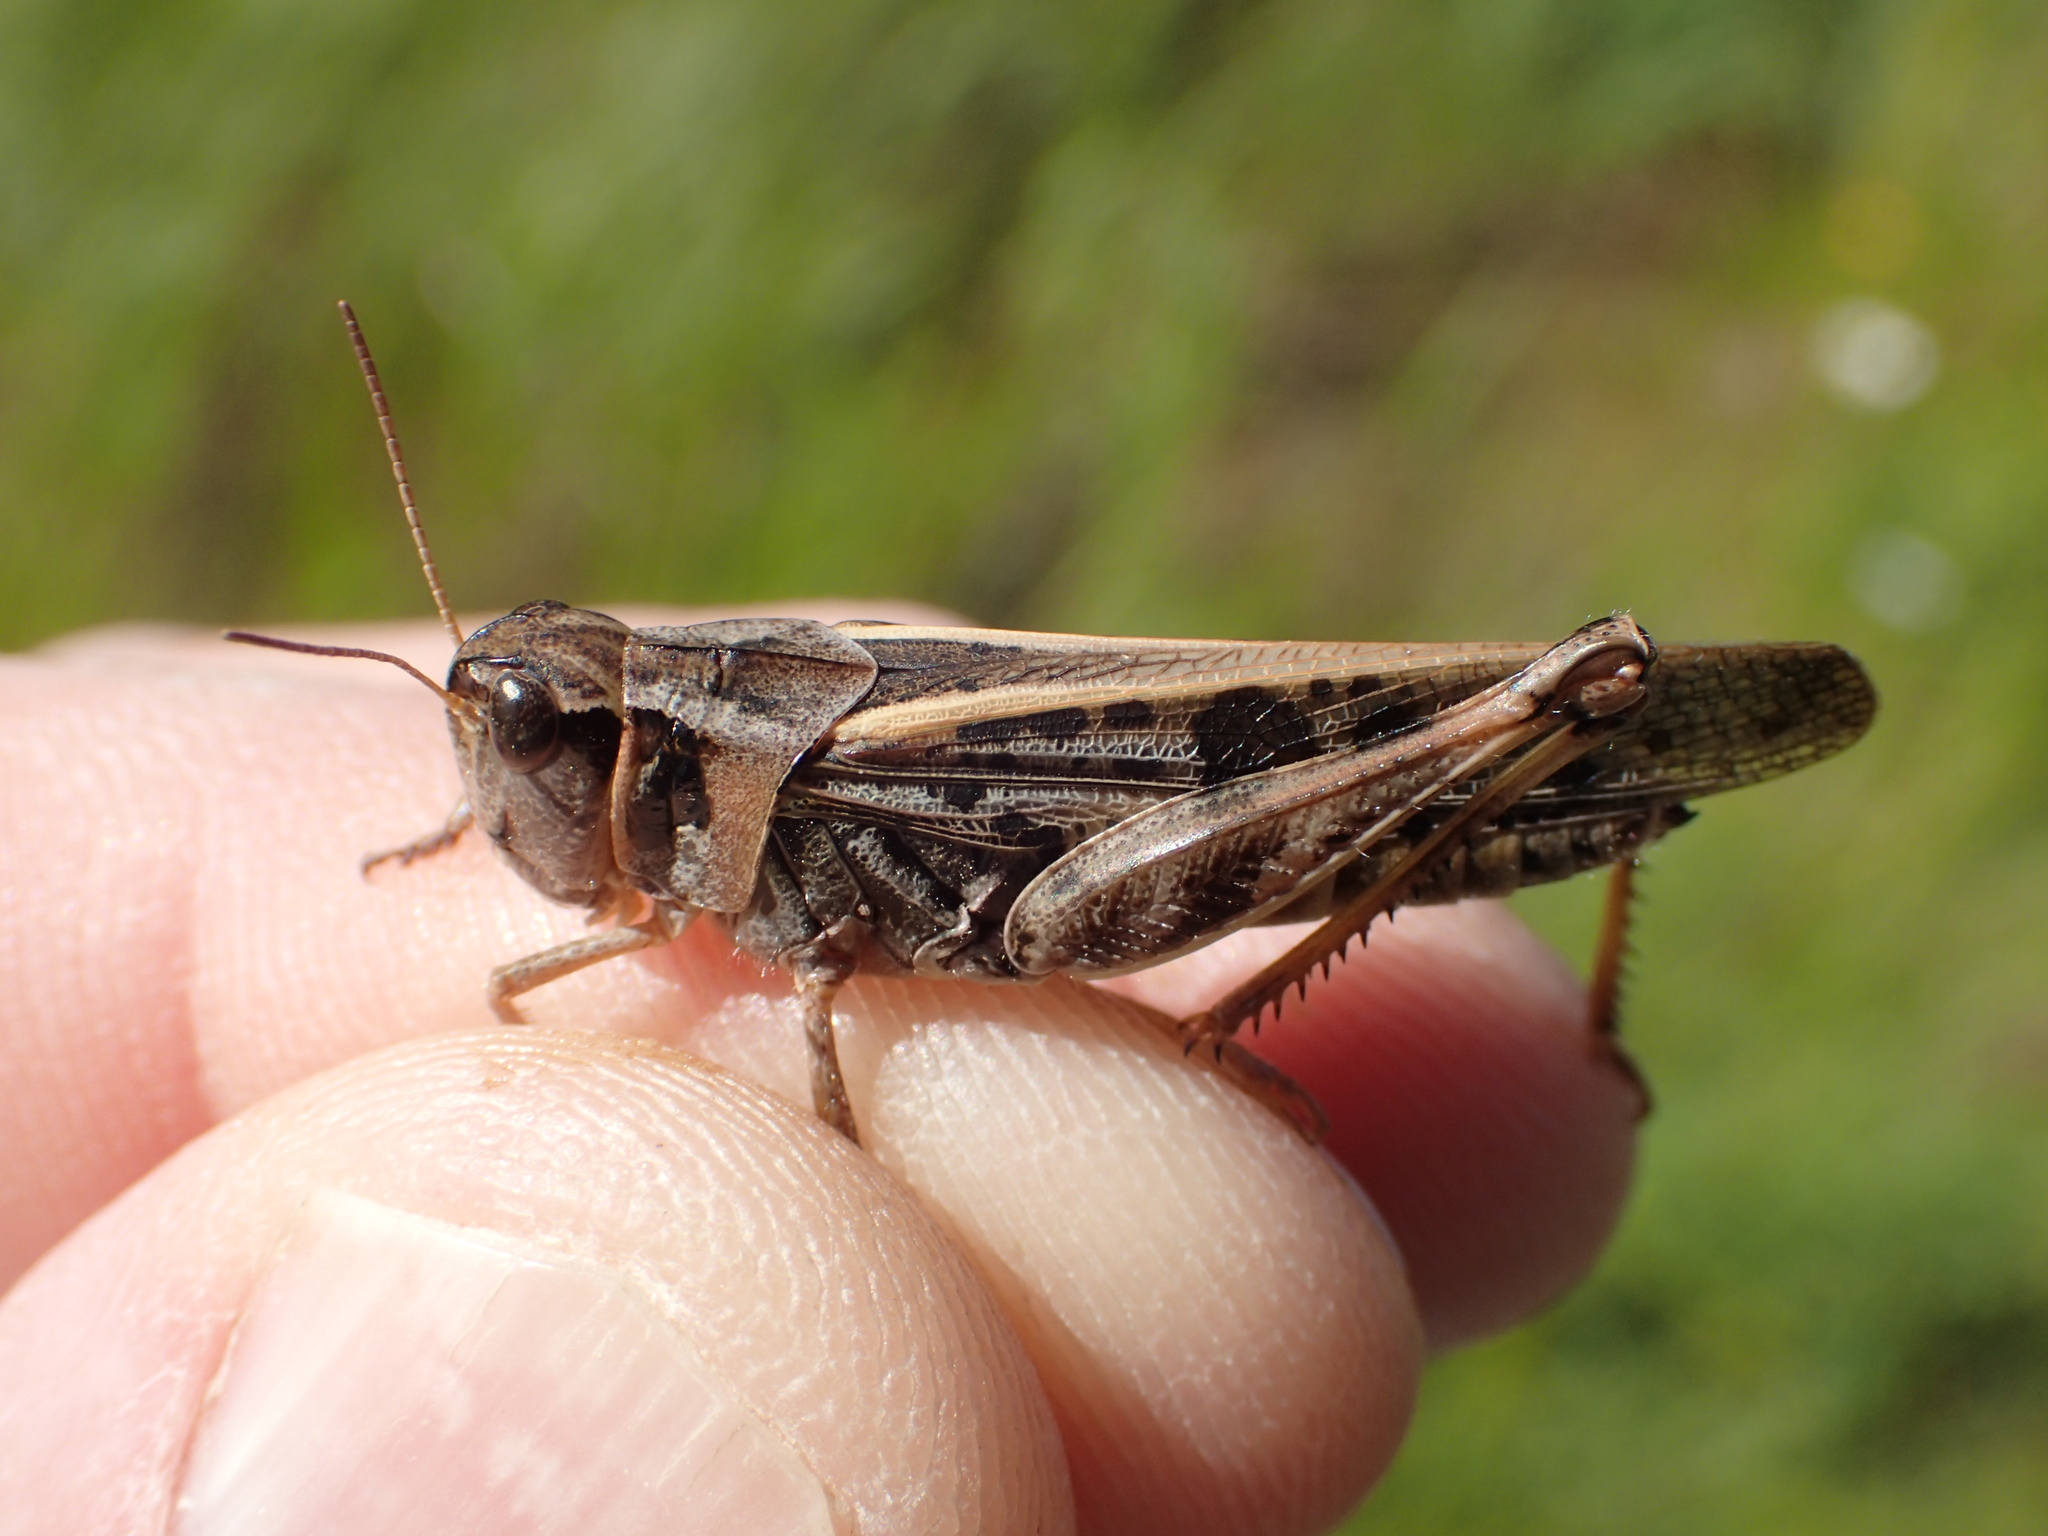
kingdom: Animalia
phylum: Arthropoda
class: Insecta
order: Orthoptera
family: Acrididae
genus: Camnula
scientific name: Camnula pellucida
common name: Clear-winged grasshopper
